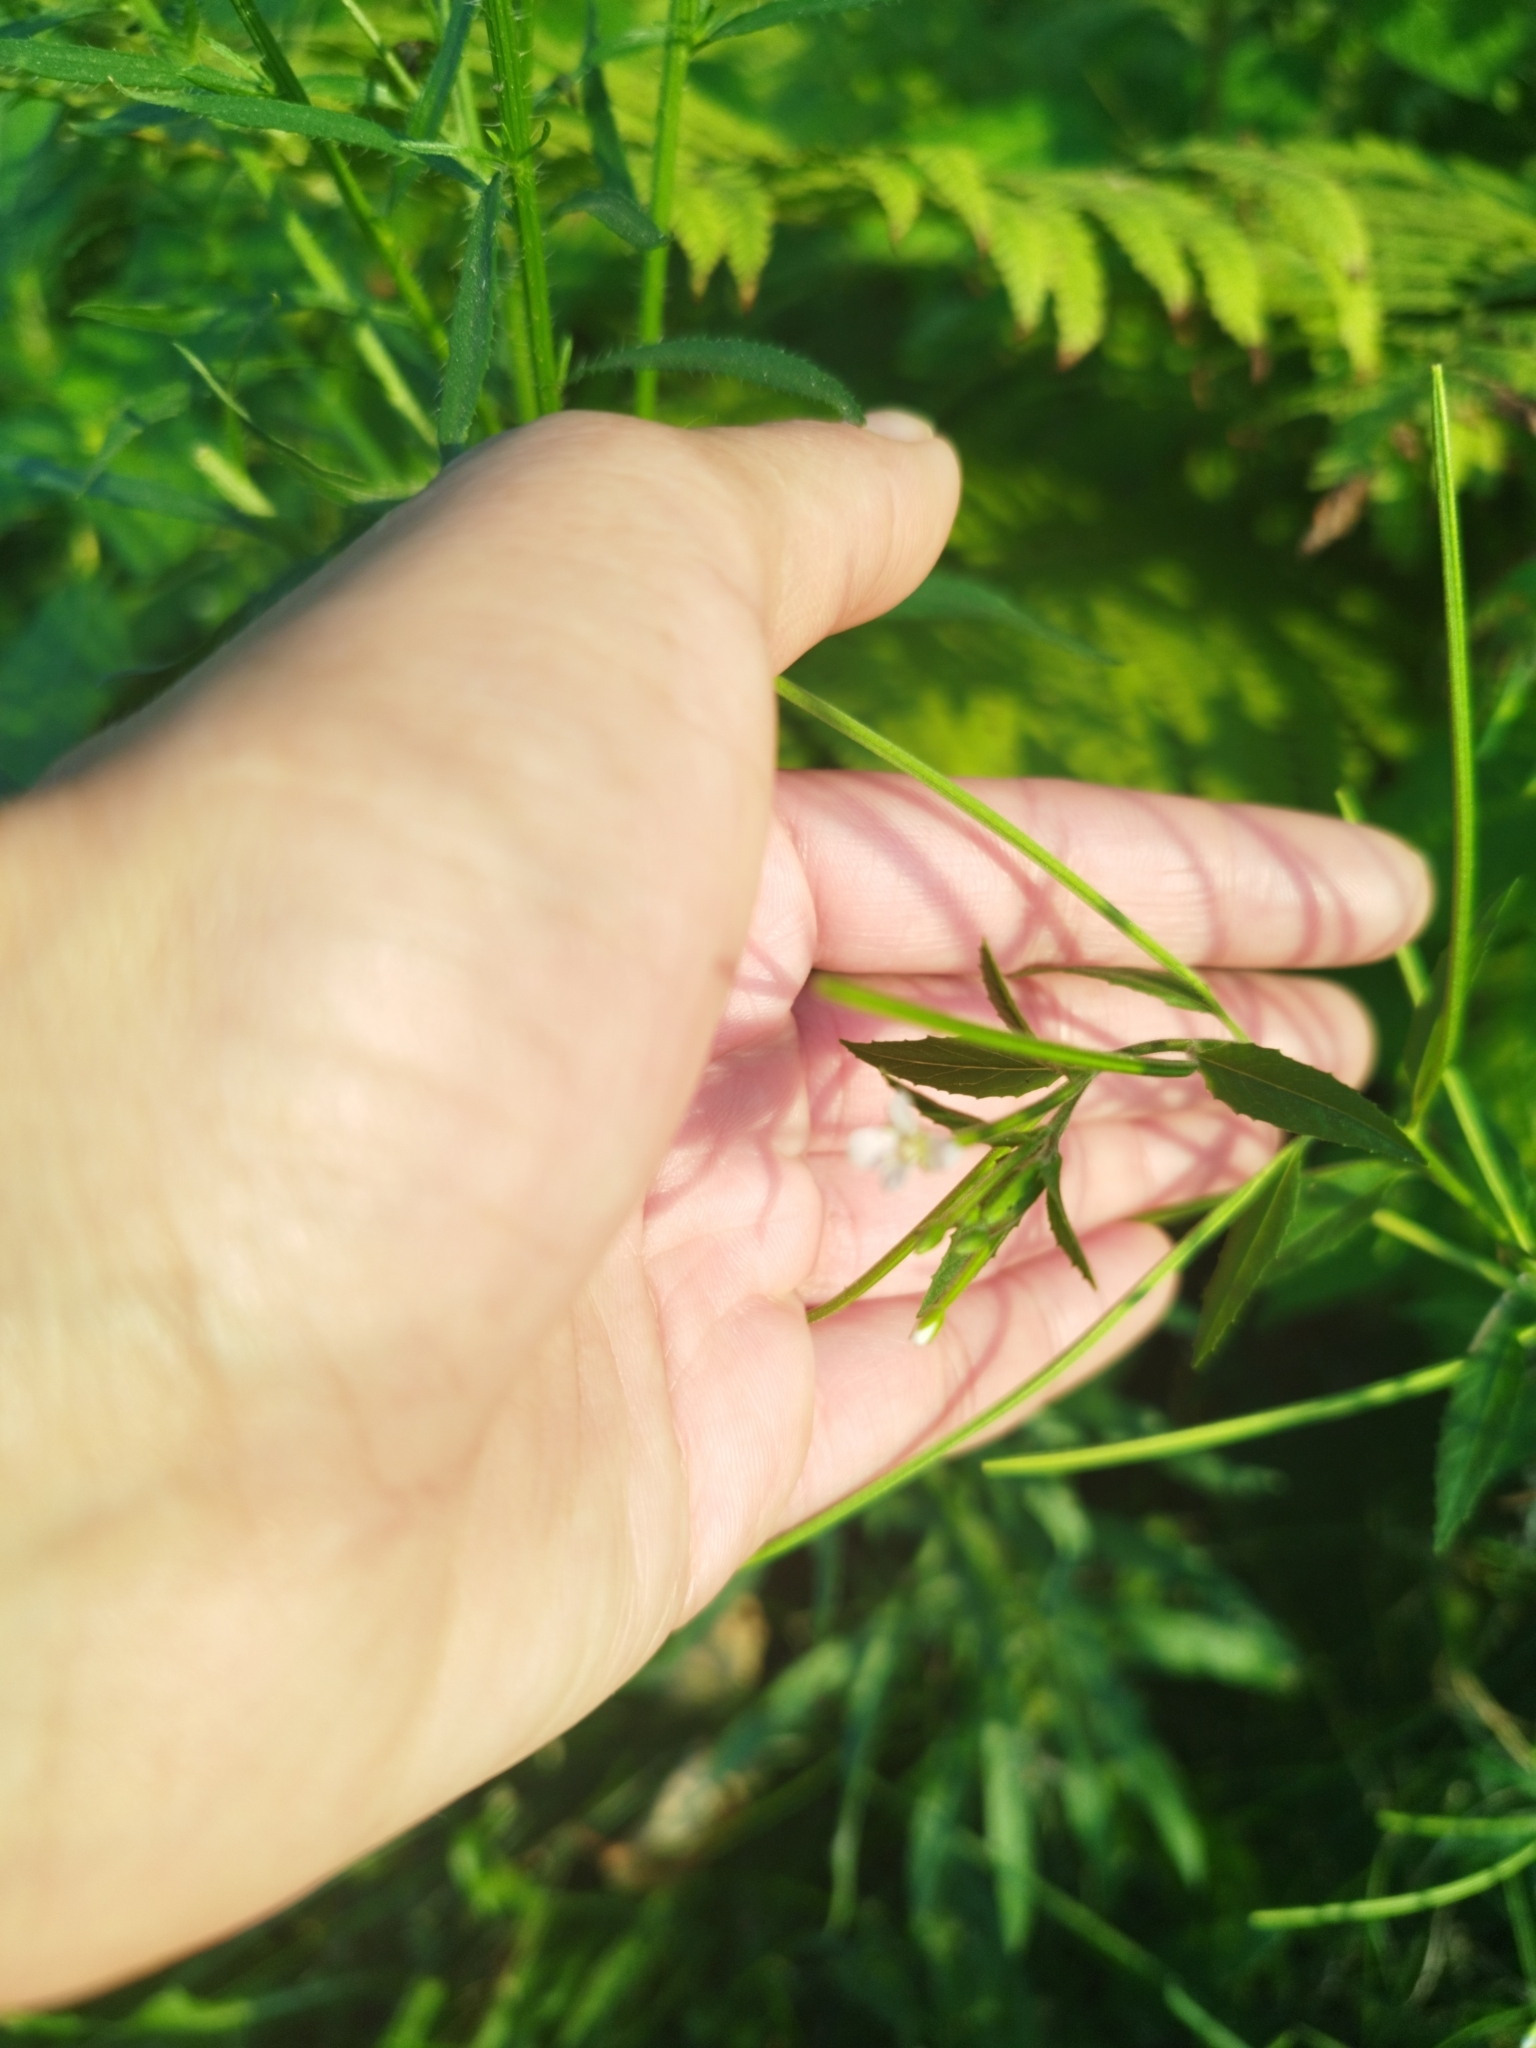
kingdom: Plantae
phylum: Tracheophyta
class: Magnoliopsida
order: Myrtales
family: Onagraceae
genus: Epilobium
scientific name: Epilobium pseudorubescens
